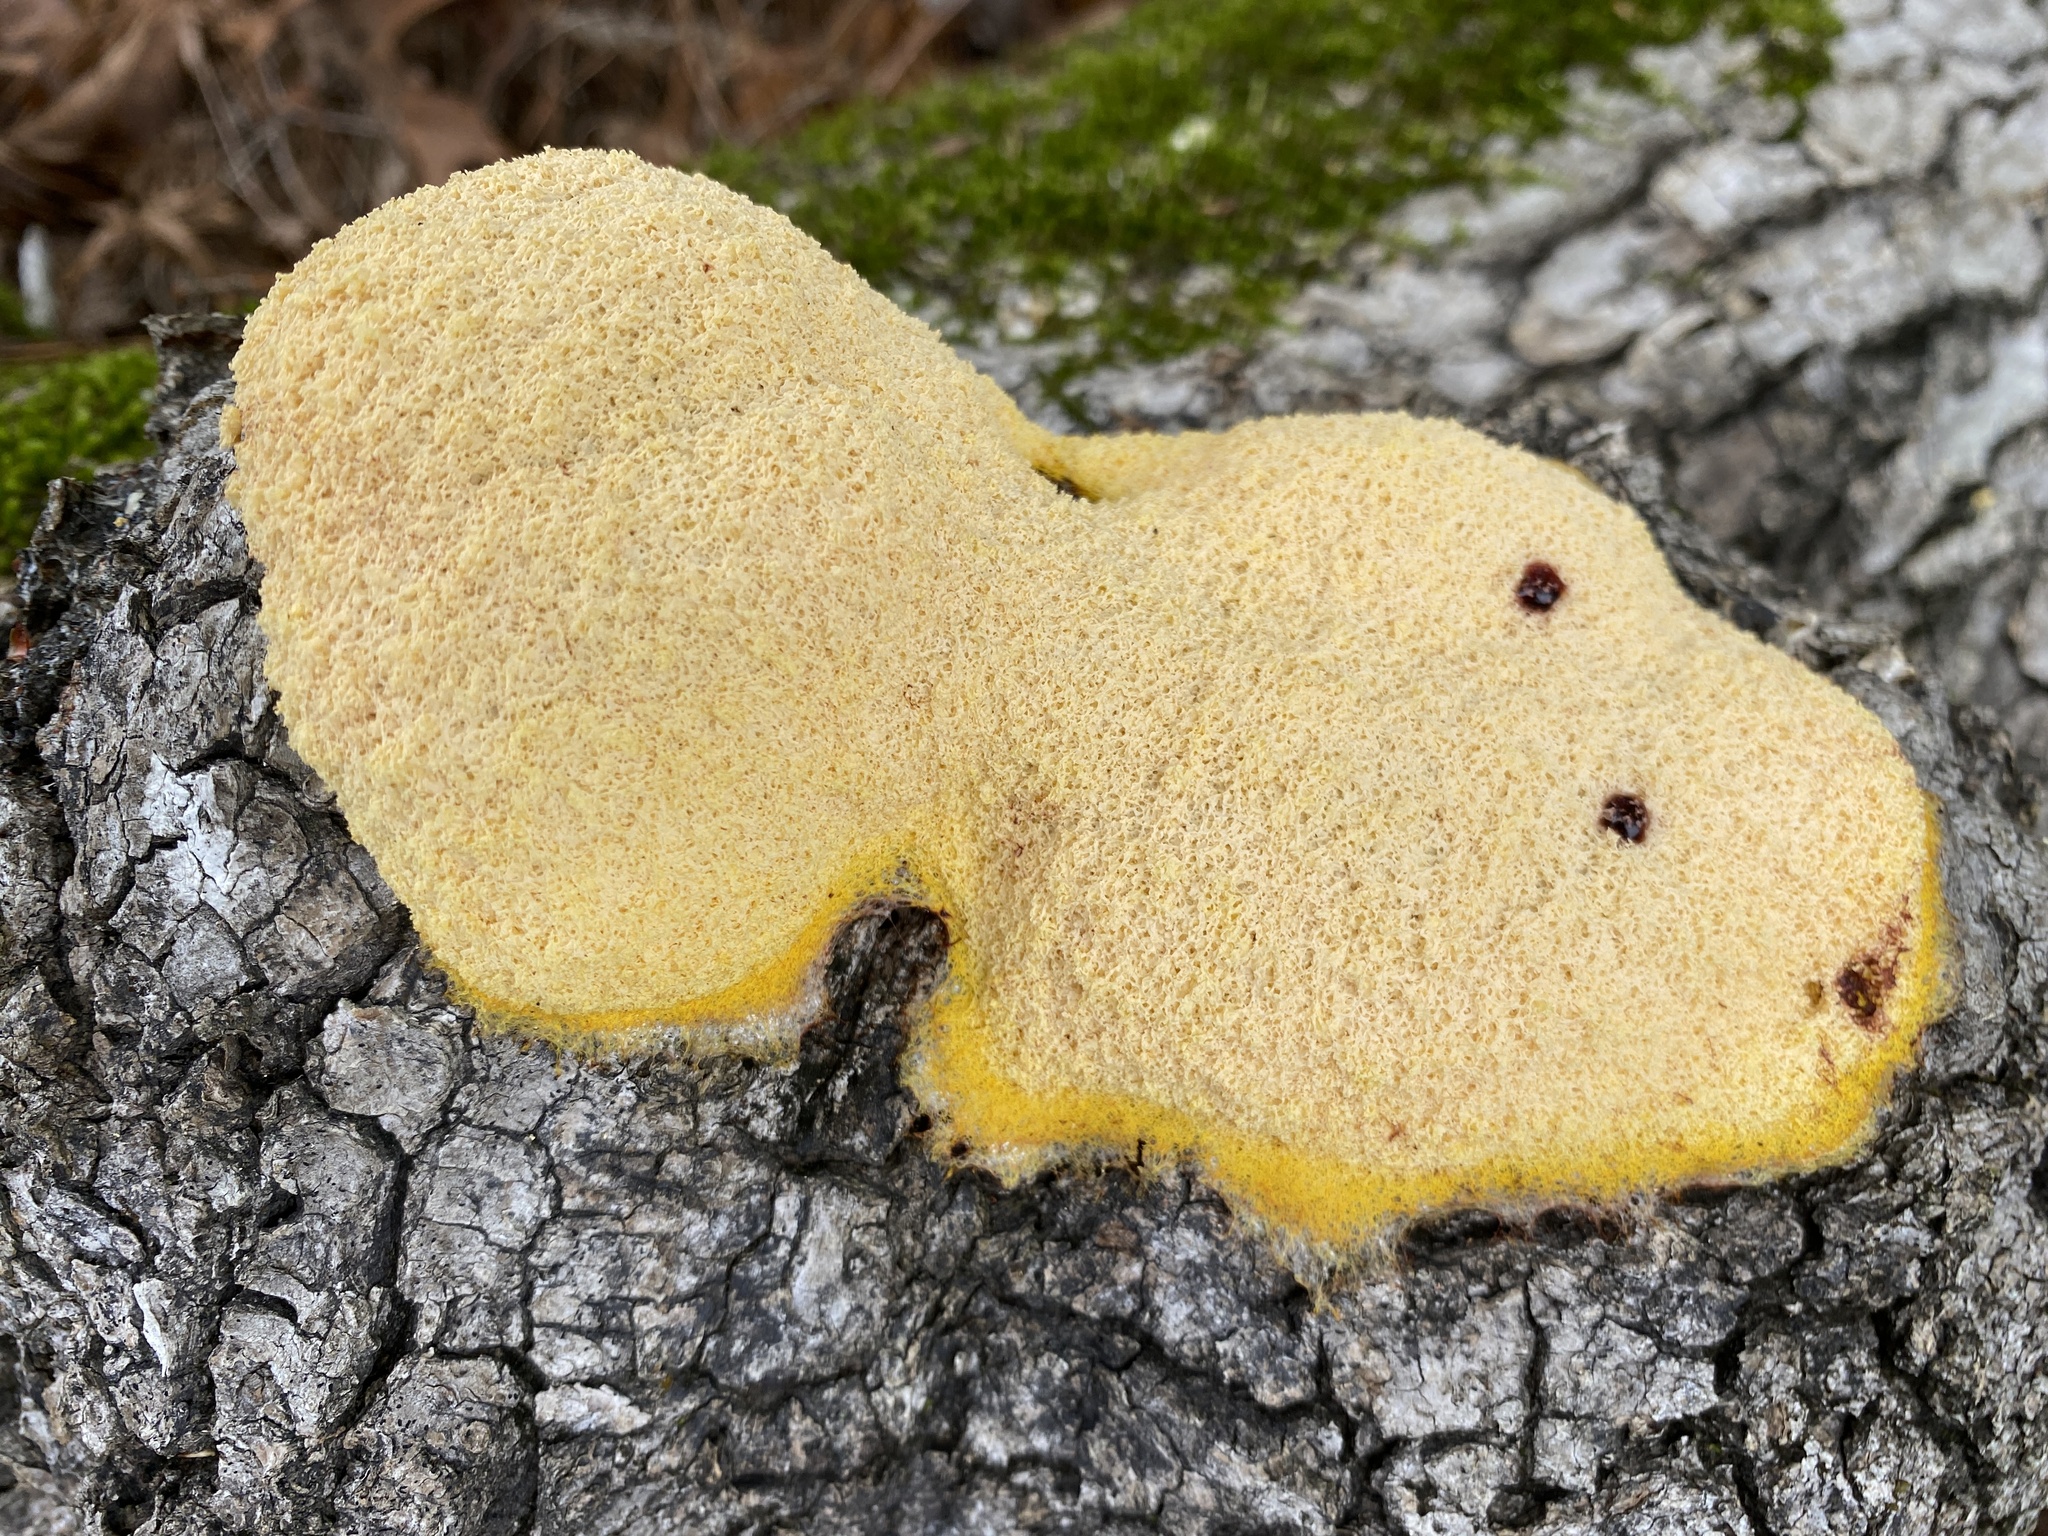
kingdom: Protozoa
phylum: Mycetozoa
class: Myxomycetes
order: Physarales
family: Physaraceae
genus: Fuligo
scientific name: Fuligo septica
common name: Dog vomit slime mold
